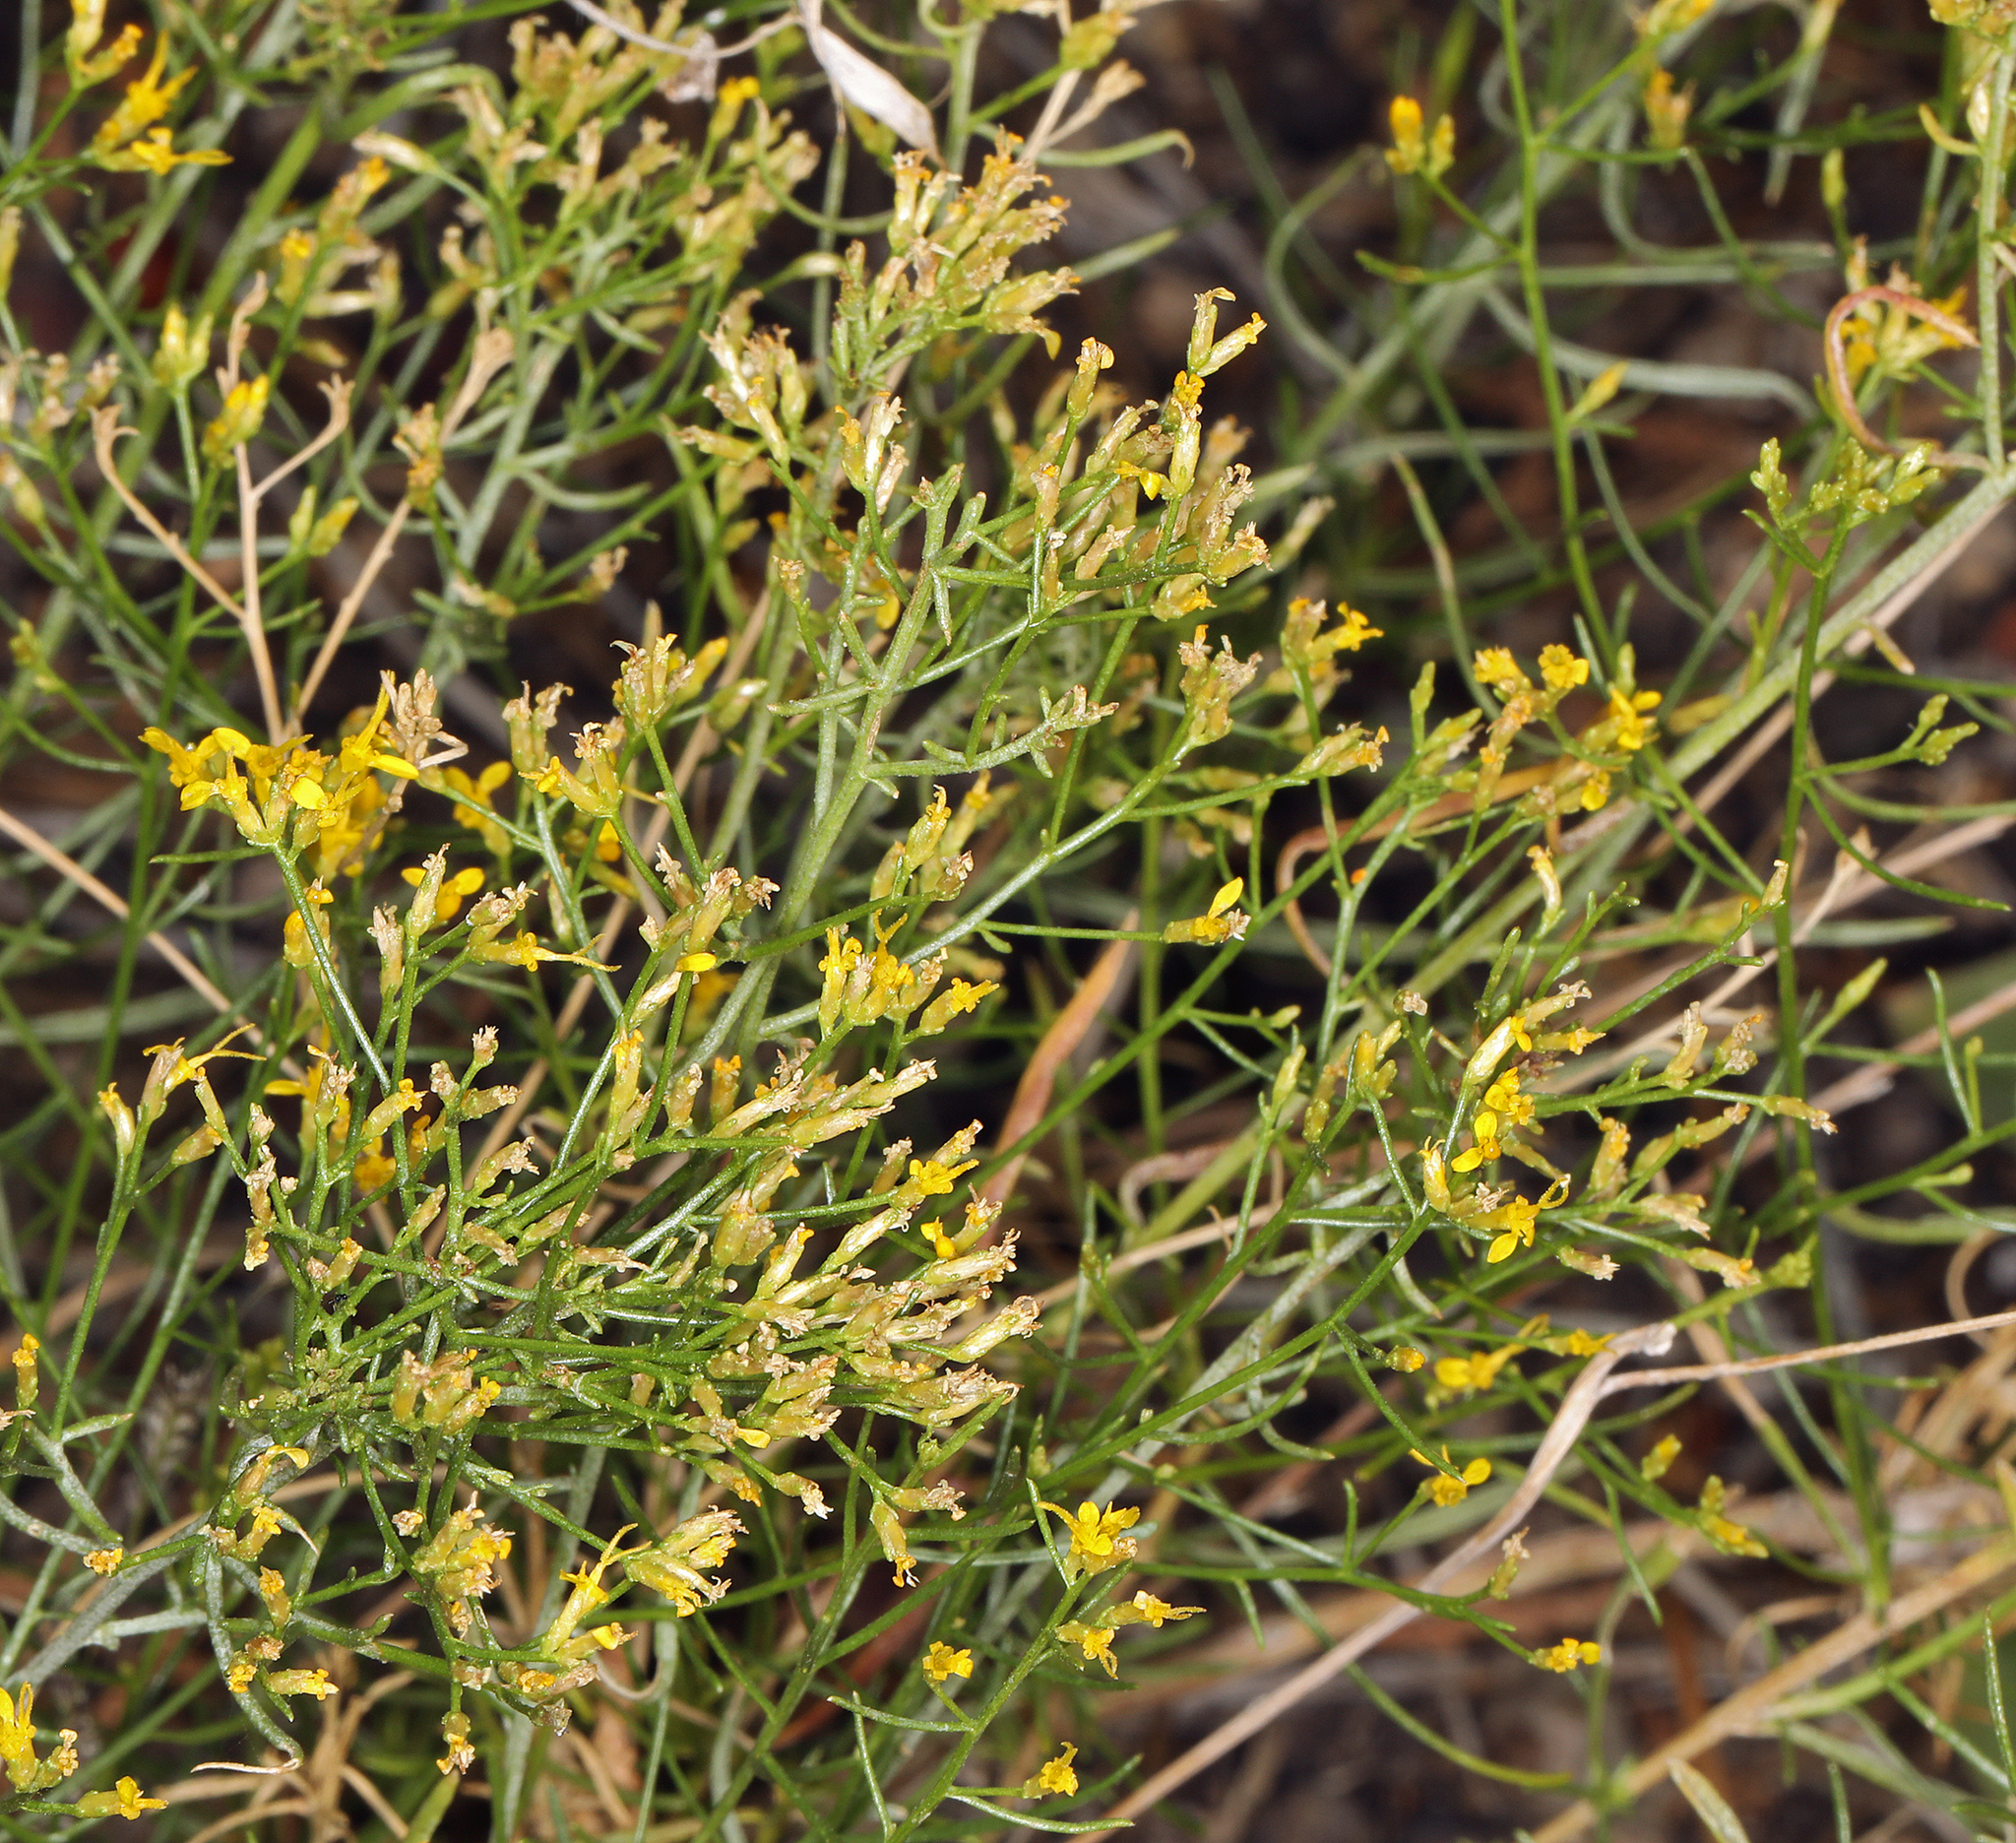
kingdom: Plantae
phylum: Tracheophyta
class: Magnoliopsida
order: Asterales
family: Asteraceae
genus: Gutierrezia
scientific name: Gutierrezia microcephala
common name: Thread snakeweed
